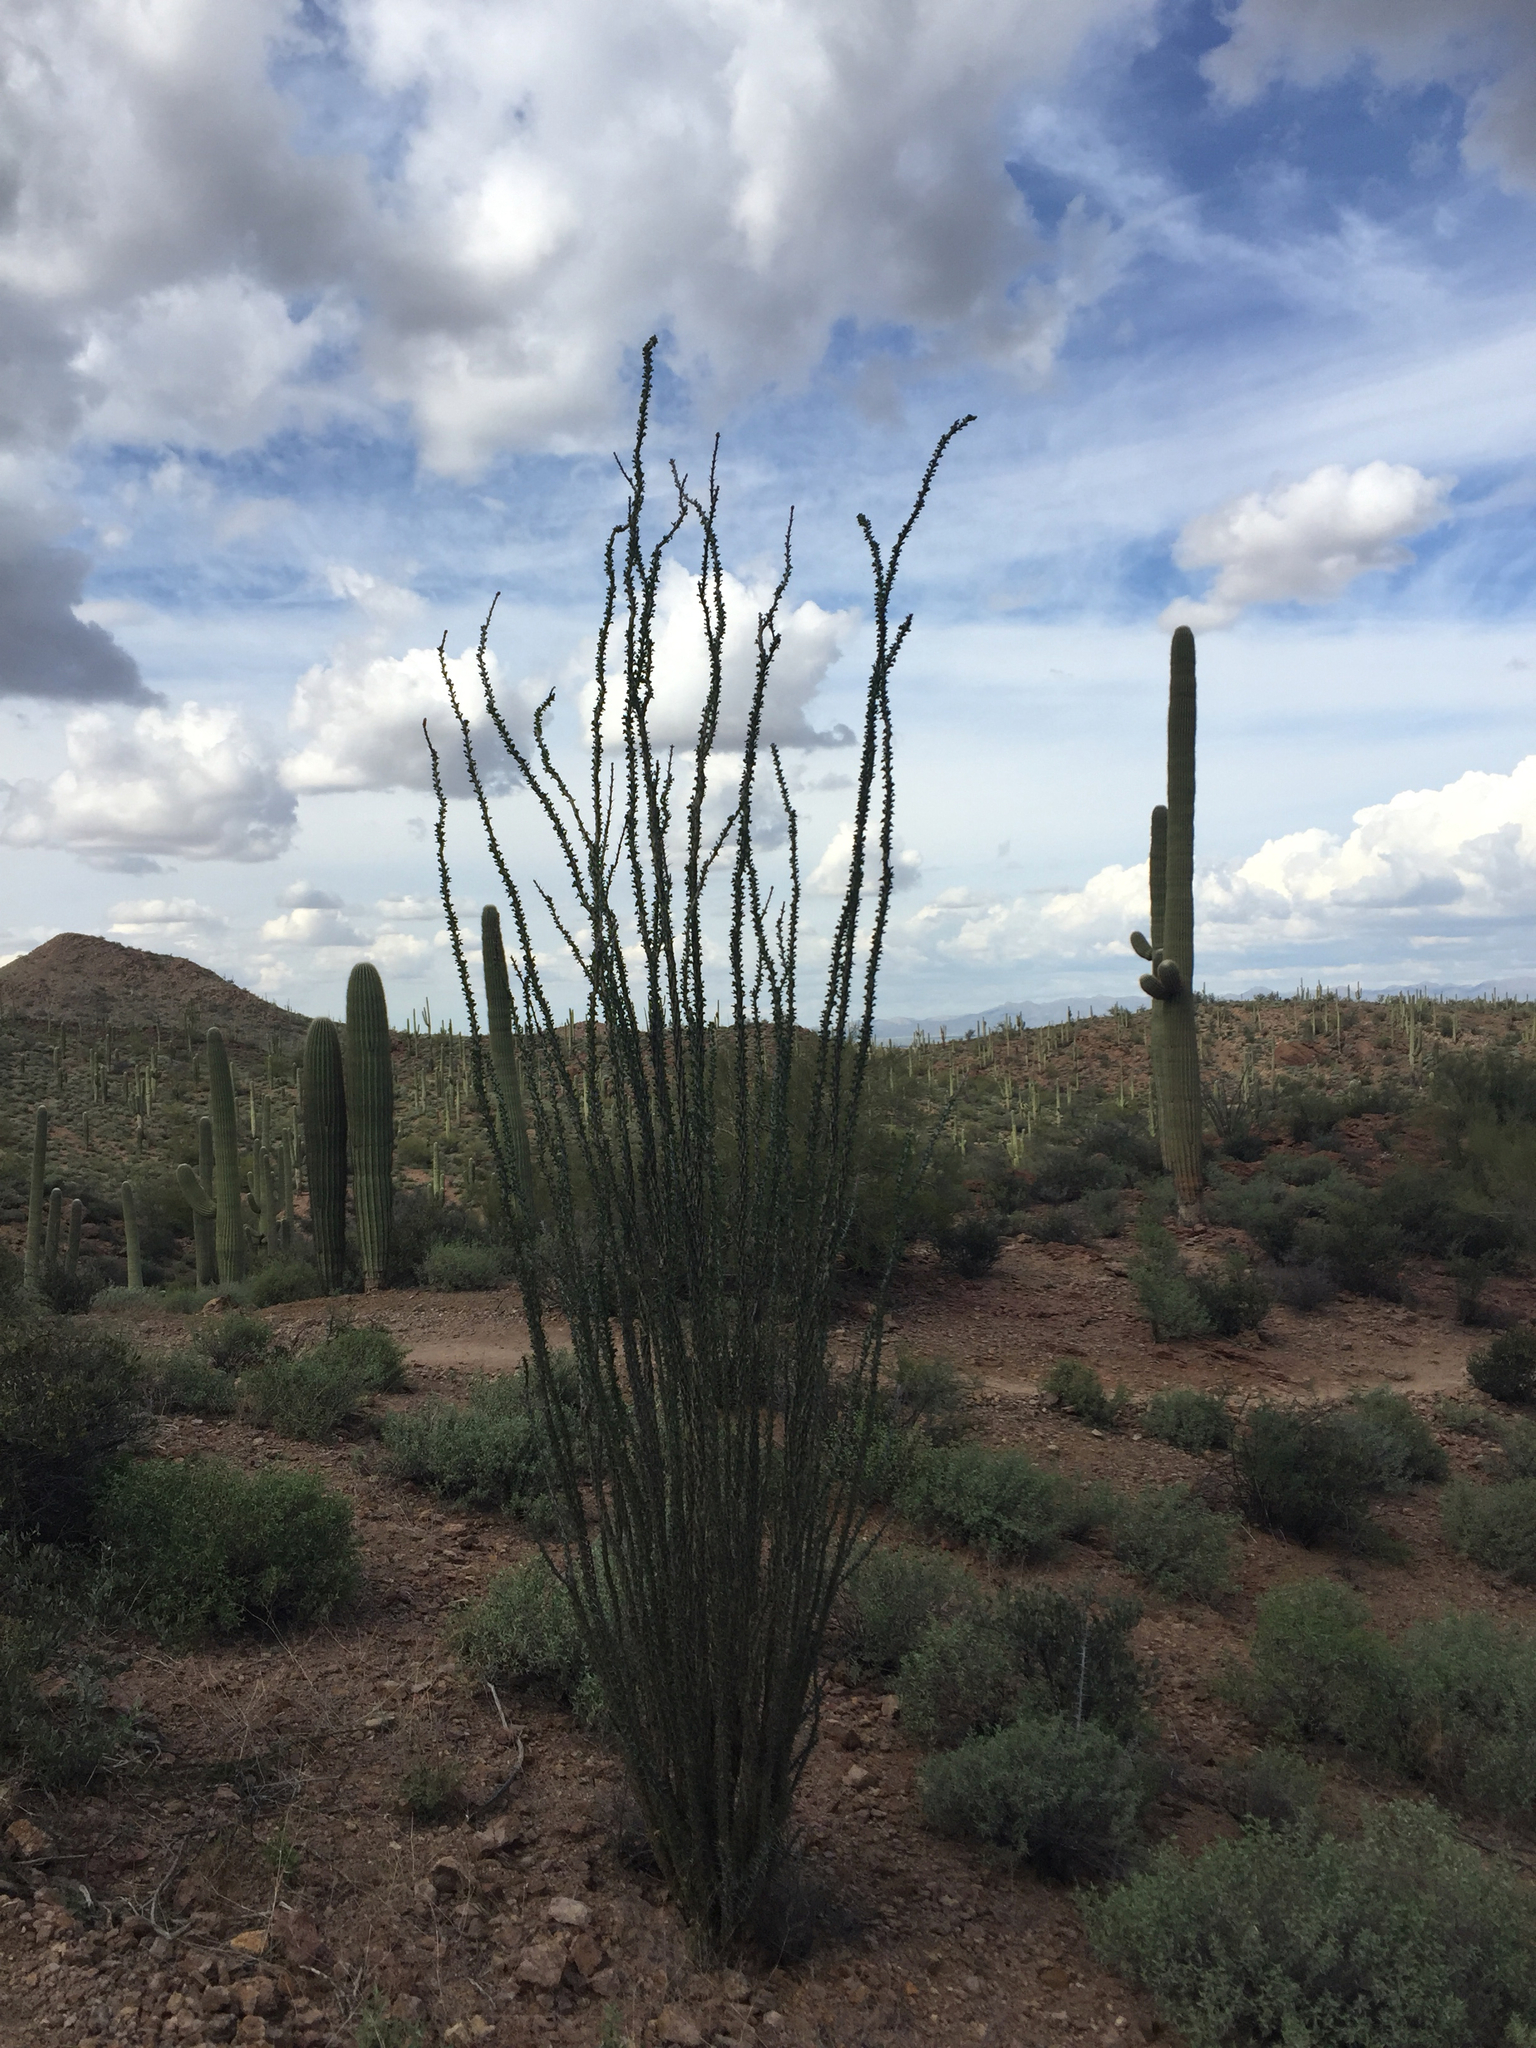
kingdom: Plantae
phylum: Tracheophyta
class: Magnoliopsida
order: Ericales
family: Fouquieriaceae
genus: Fouquieria
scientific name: Fouquieria splendens
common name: Vine-cactus
